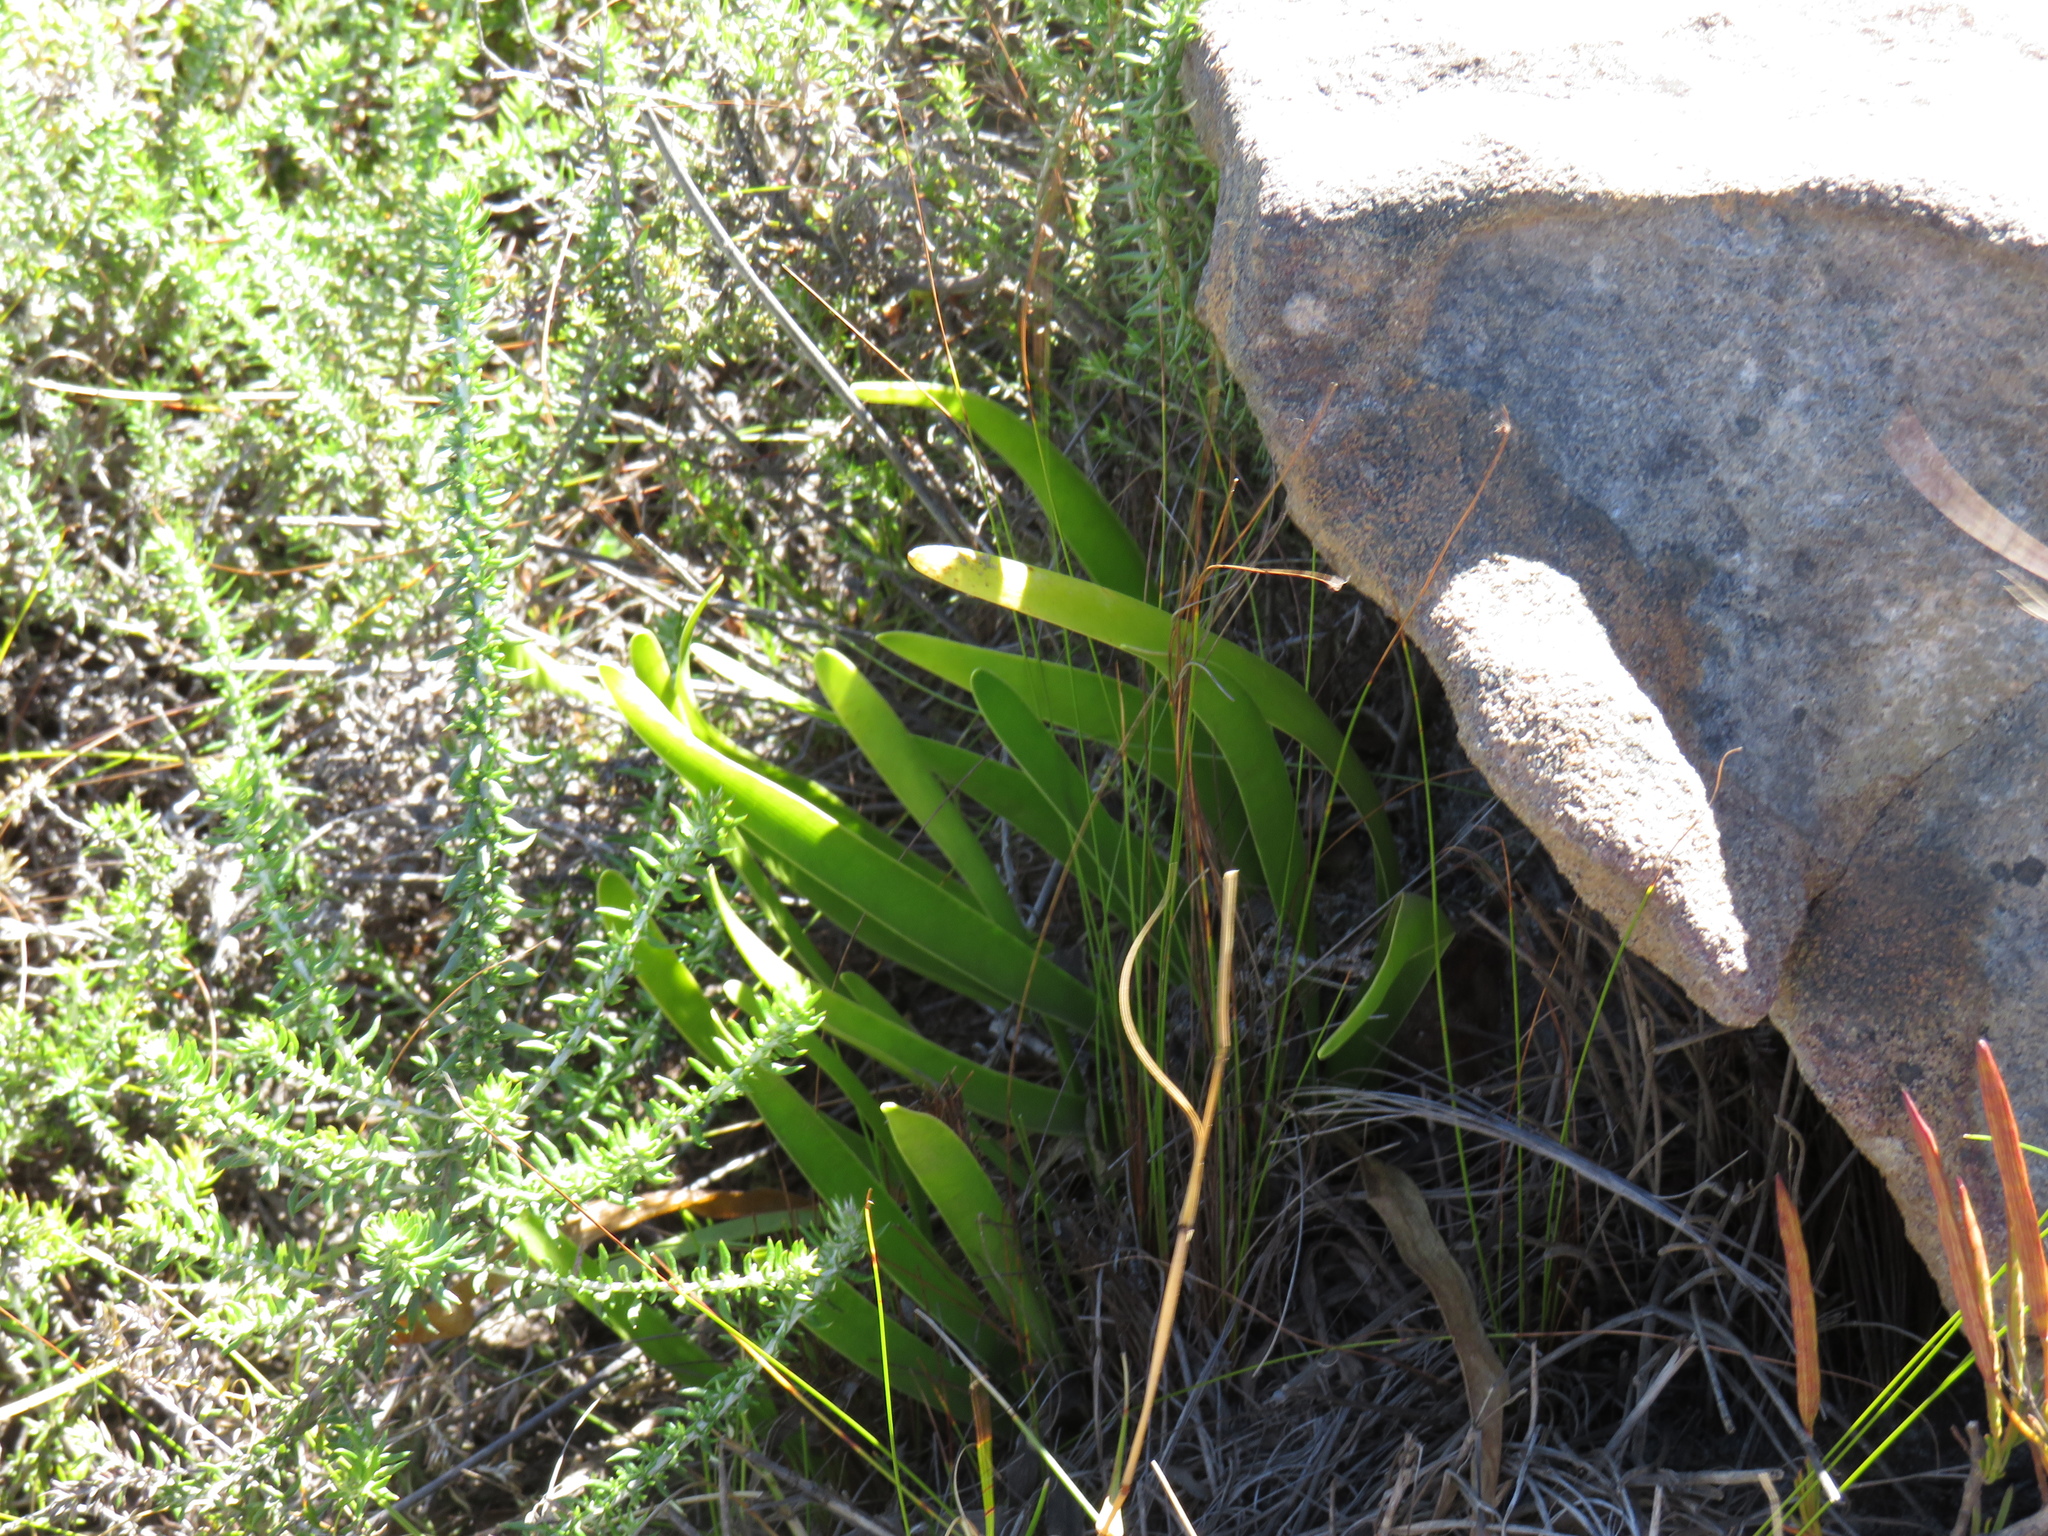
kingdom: Plantae
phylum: Tracheophyta
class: Liliopsida
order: Asparagales
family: Amaryllidaceae
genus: Agapanthus
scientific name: Agapanthus africanus
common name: Lily-of-the-nile
